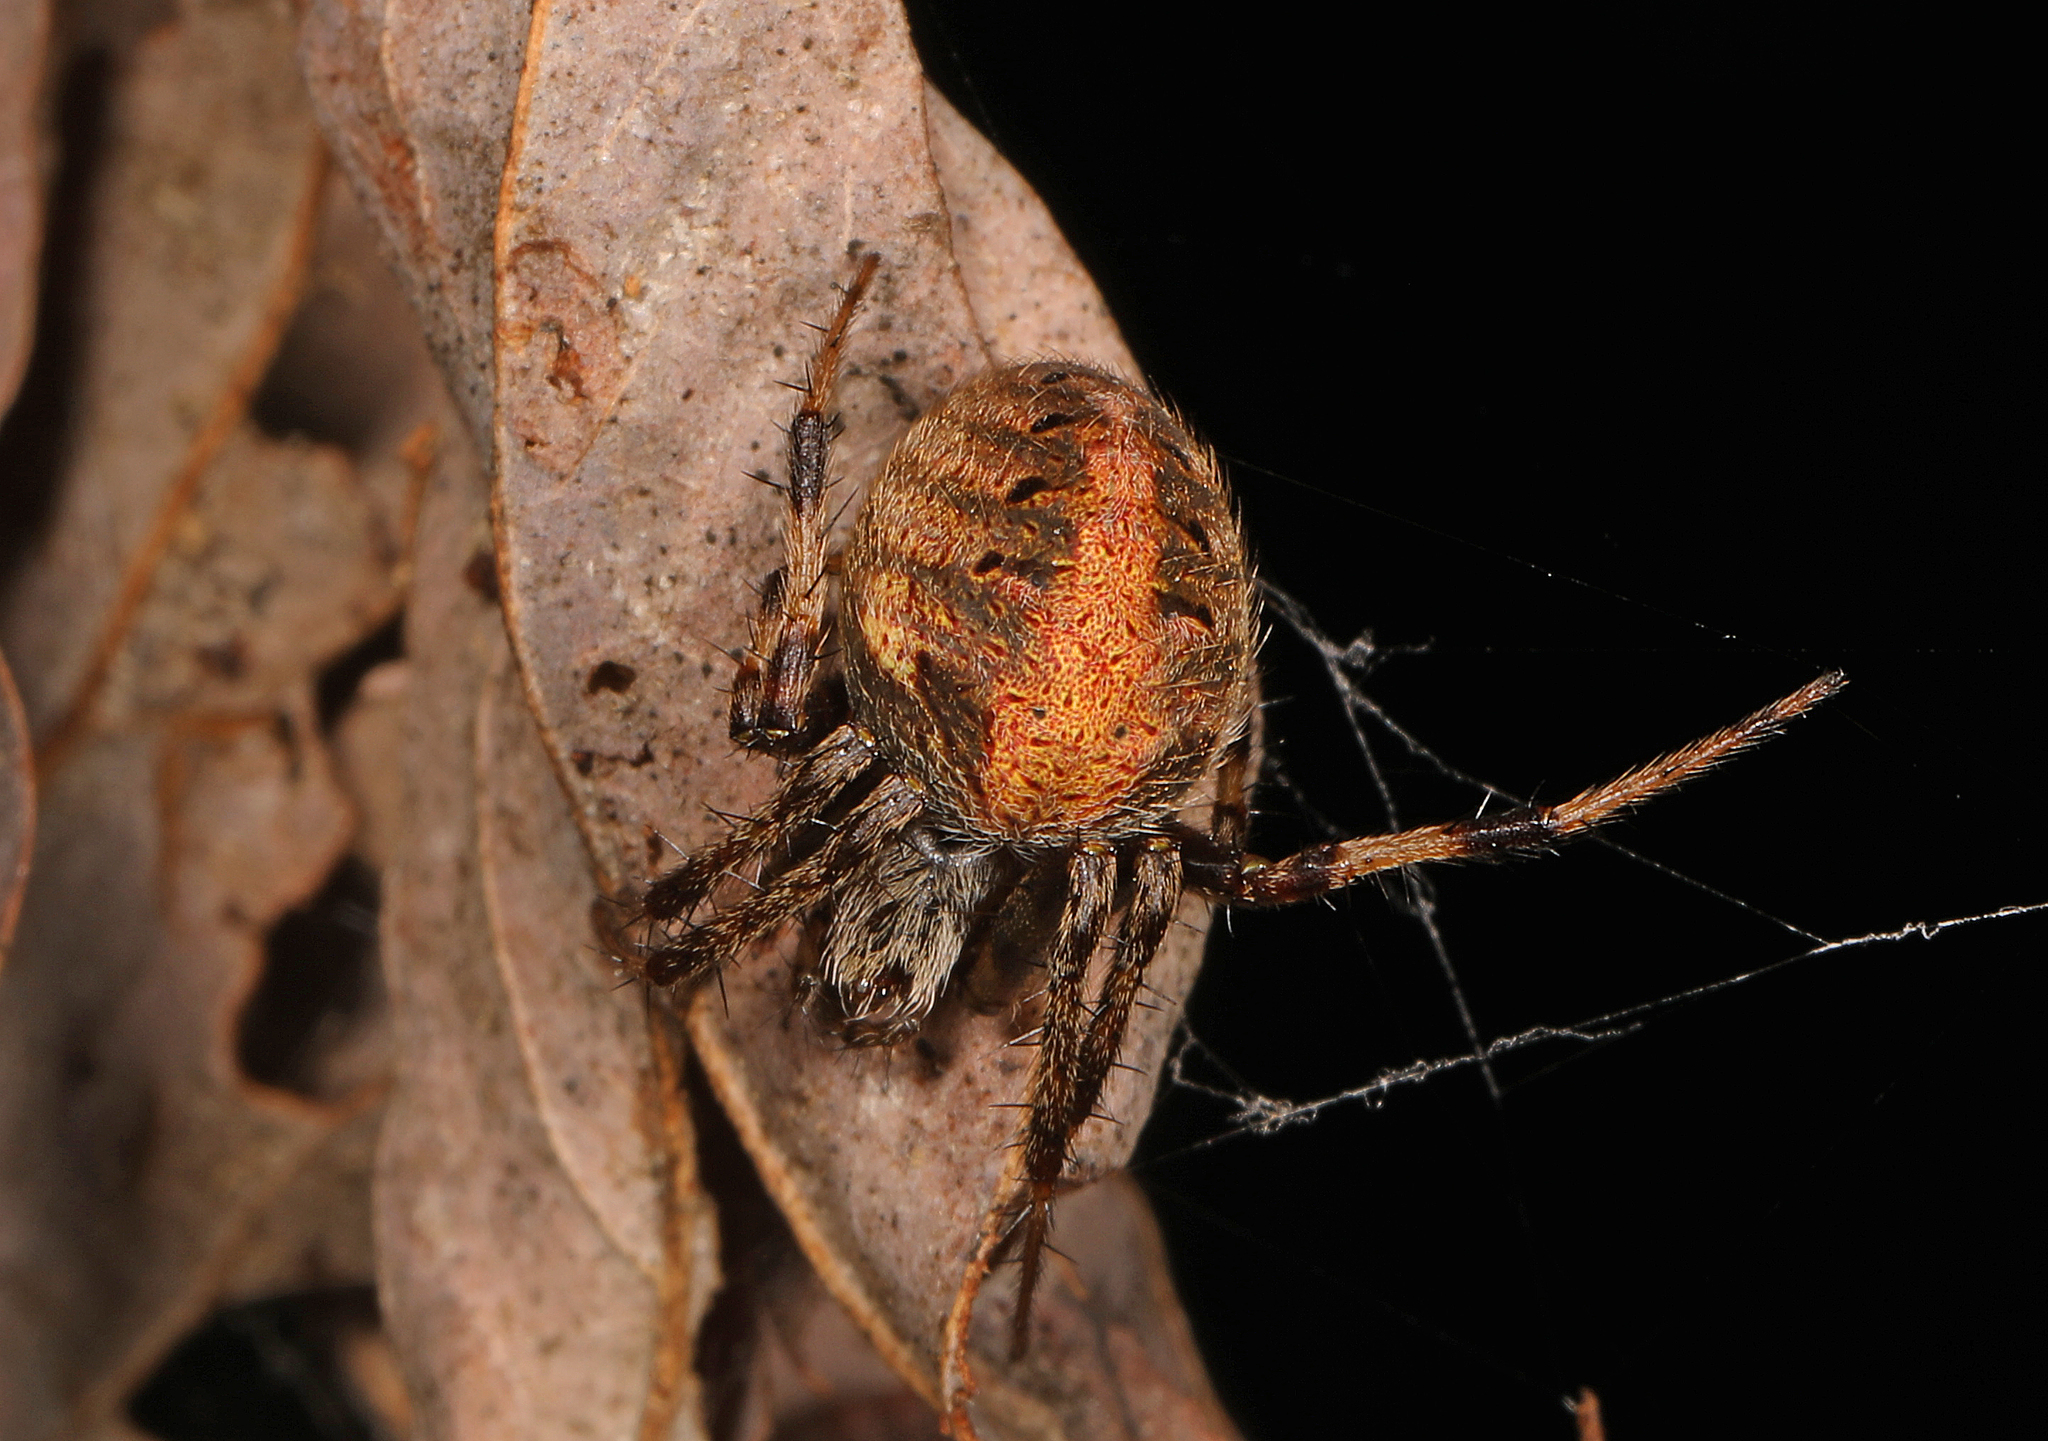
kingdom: Animalia
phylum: Arthropoda
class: Arachnida
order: Araneae
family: Araneidae
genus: Neoscona
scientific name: Neoscona arabesca
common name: Orb weavers
